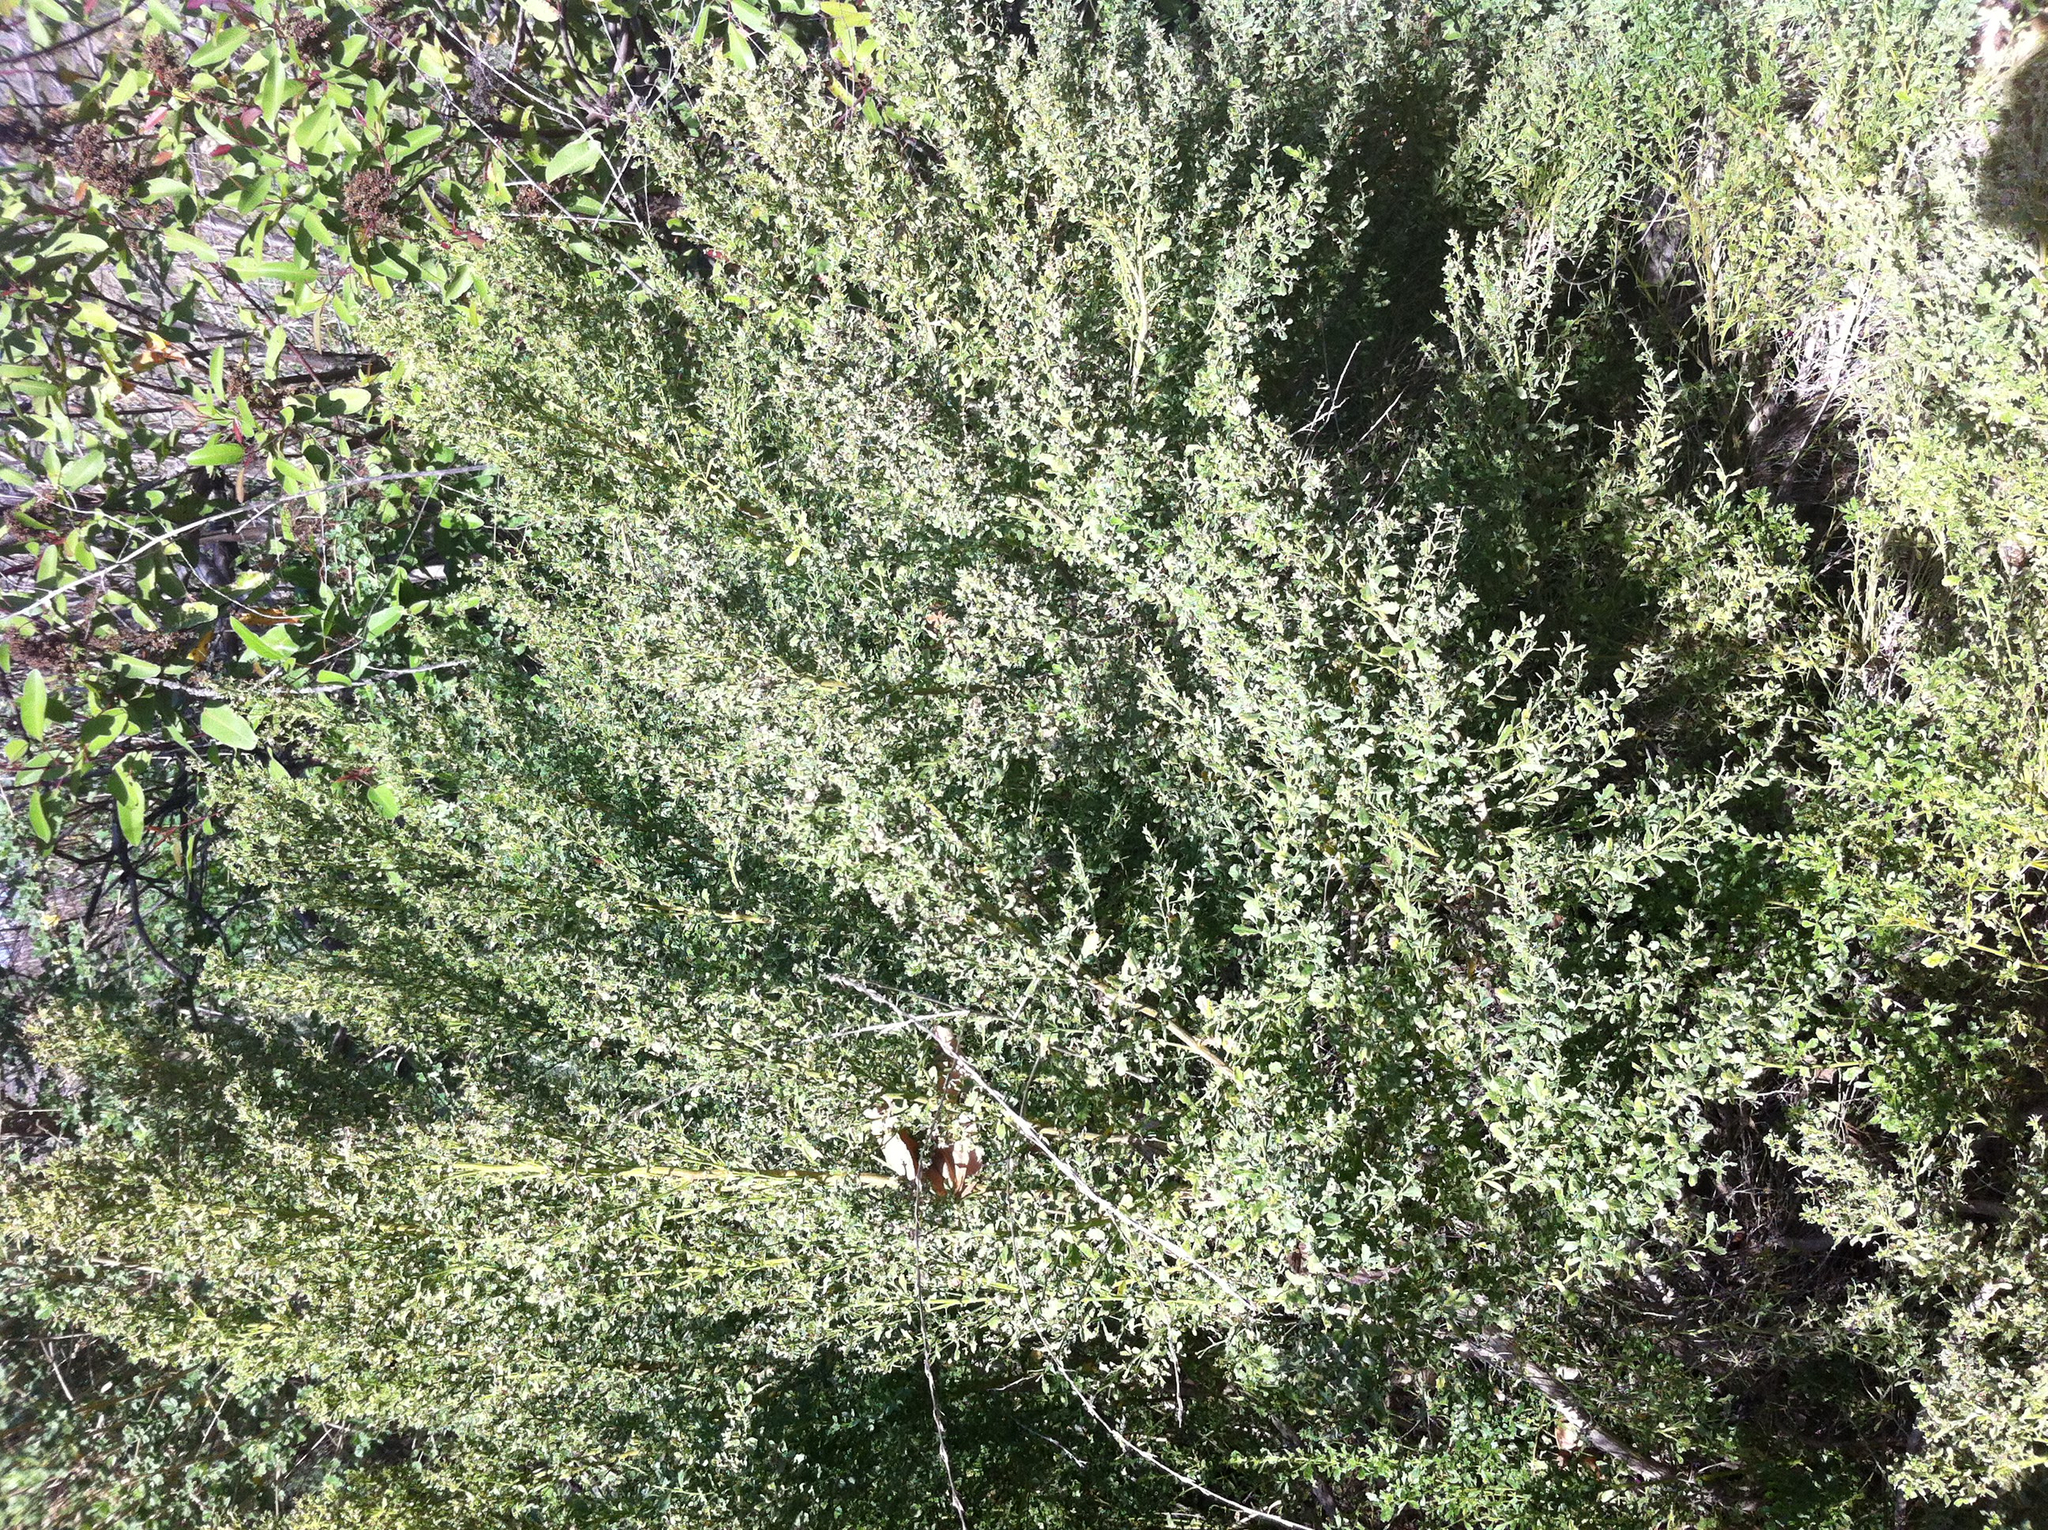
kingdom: Plantae
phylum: Tracheophyta
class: Magnoliopsida
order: Asterales
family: Asteraceae
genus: Baccharis
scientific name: Baccharis pilularis
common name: Coyotebrush
